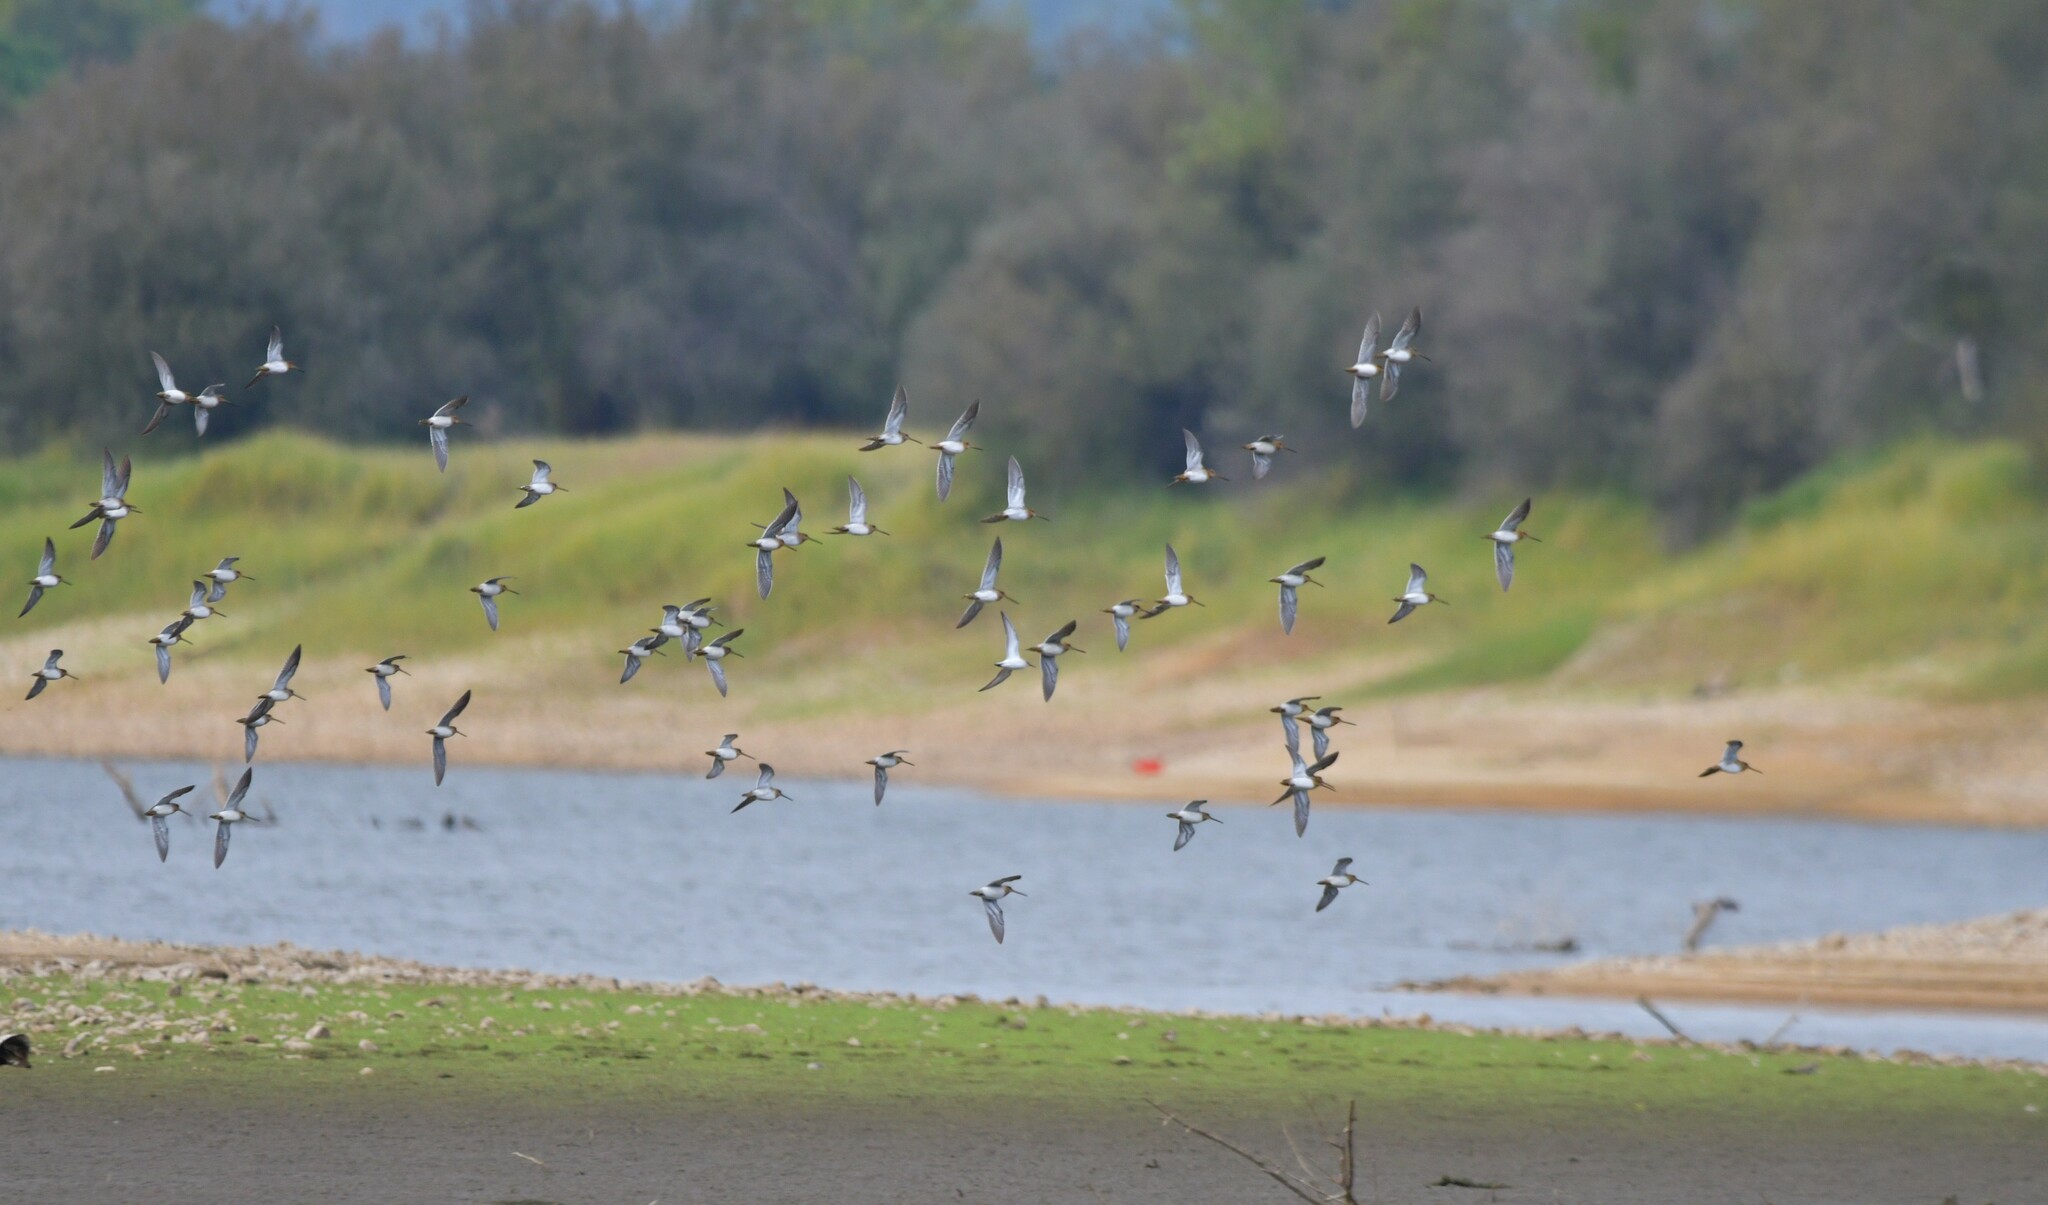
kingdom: Animalia
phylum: Chordata
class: Aves
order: Charadriiformes
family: Scolopacidae
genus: Gallinago
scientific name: Gallinago gallinago
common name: Common snipe
